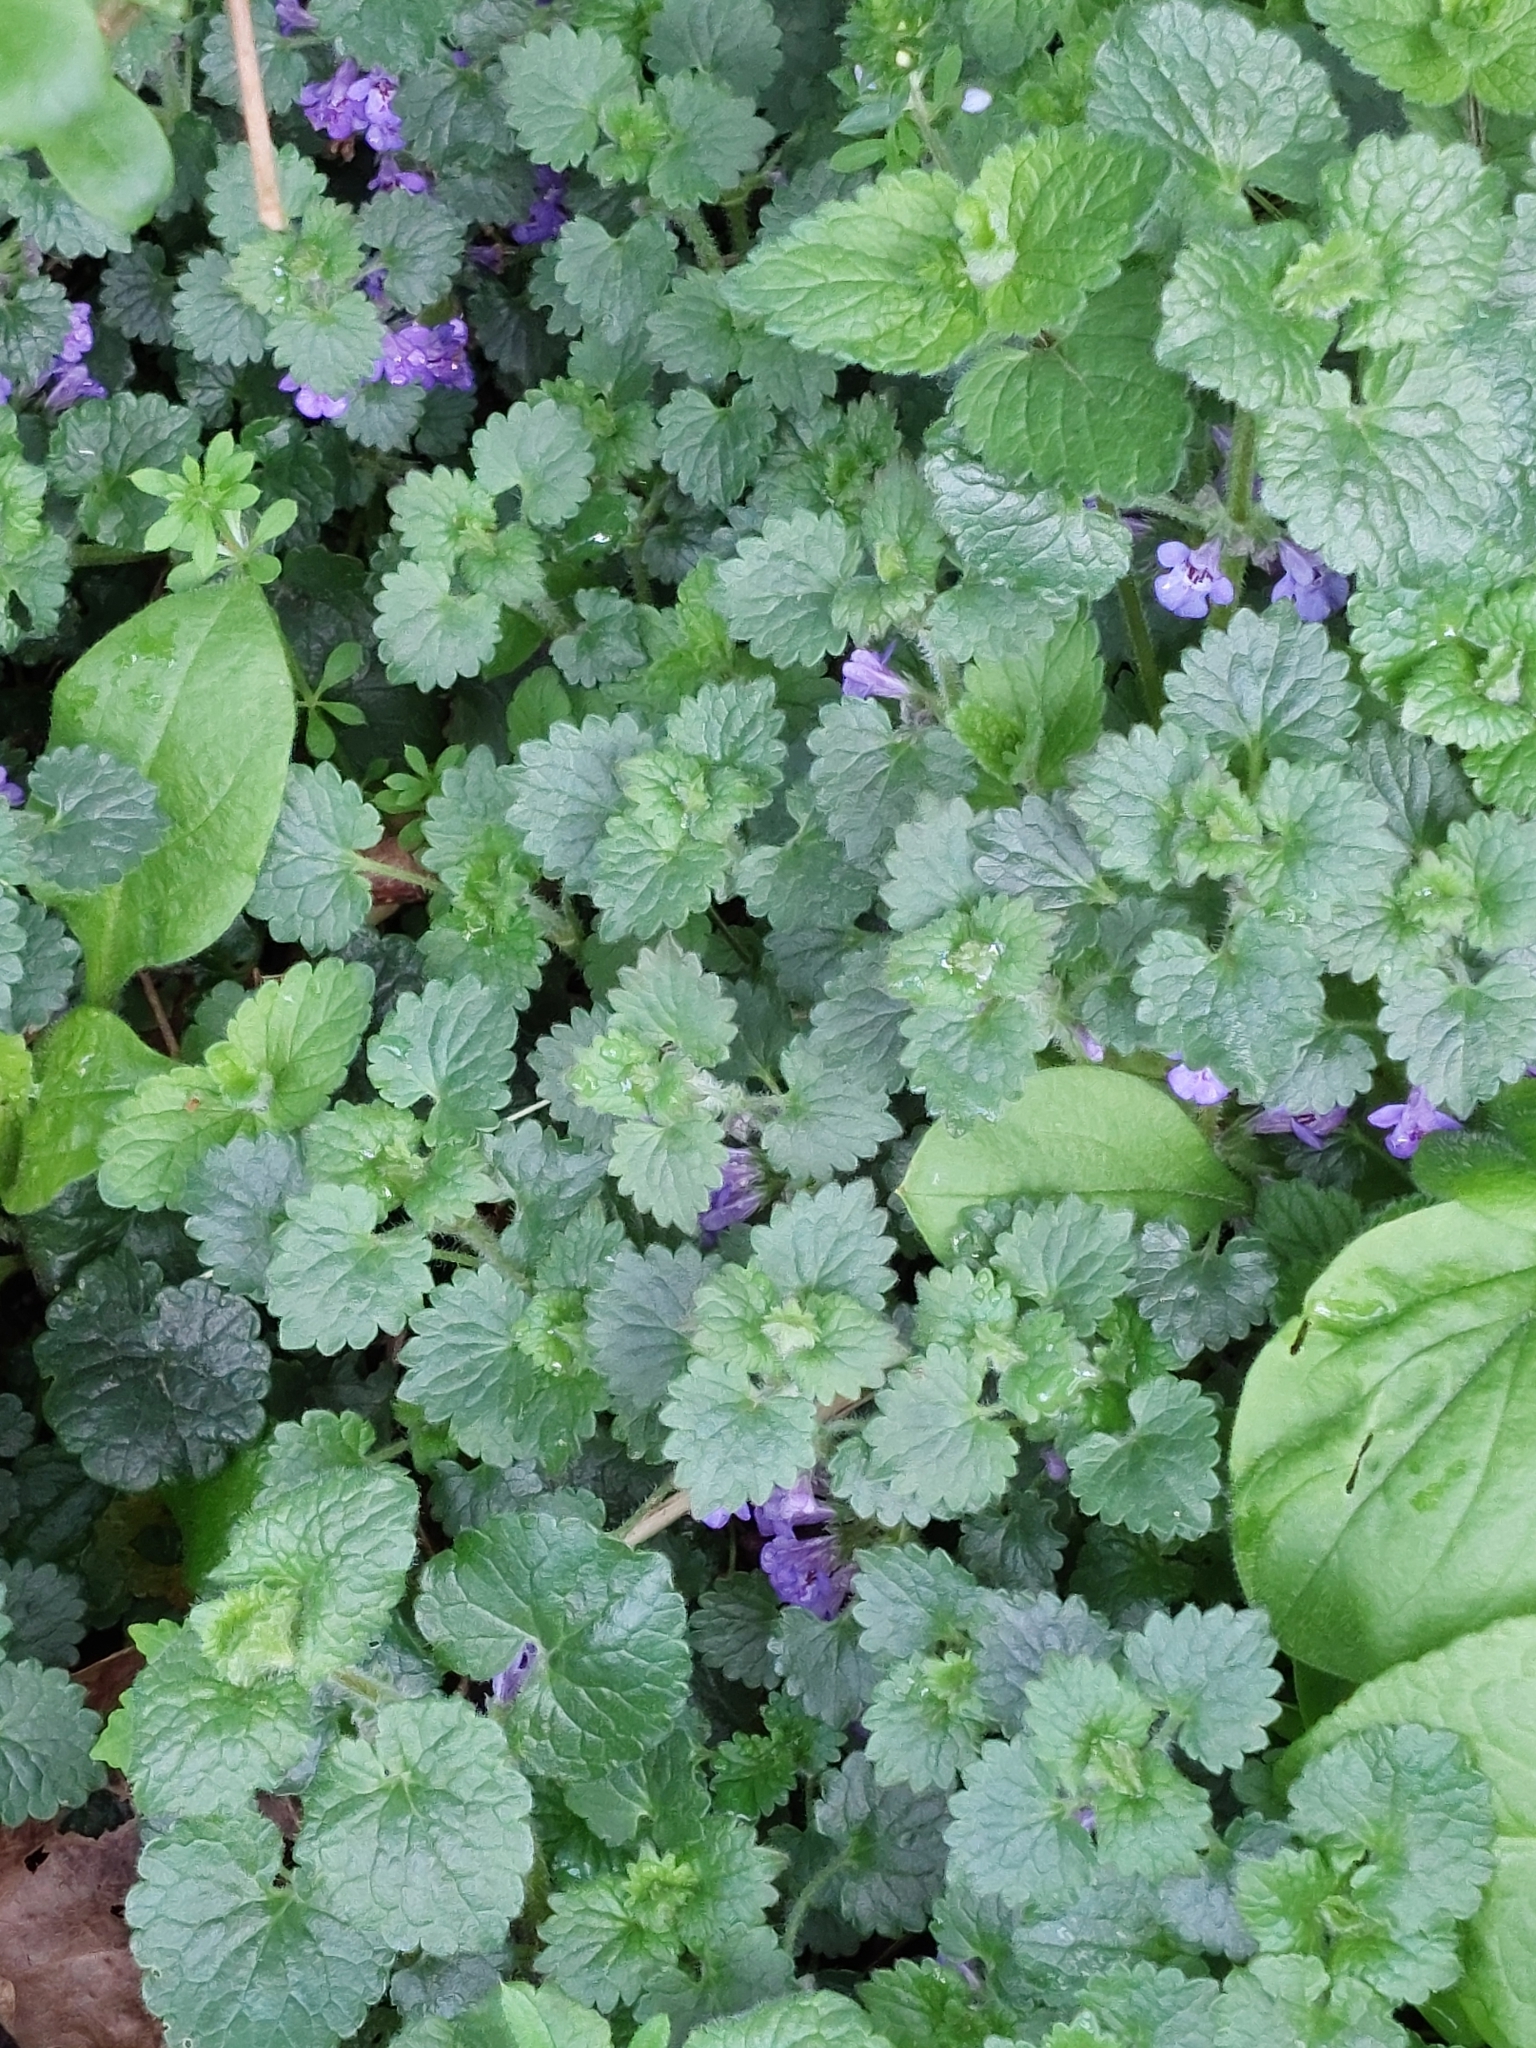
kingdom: Plantae
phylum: Tracheophyta
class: Magnoliopsida
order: Lamiales
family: Lamiaceae
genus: Glechoma
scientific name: Glechoma hederacea
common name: Ground ivy
